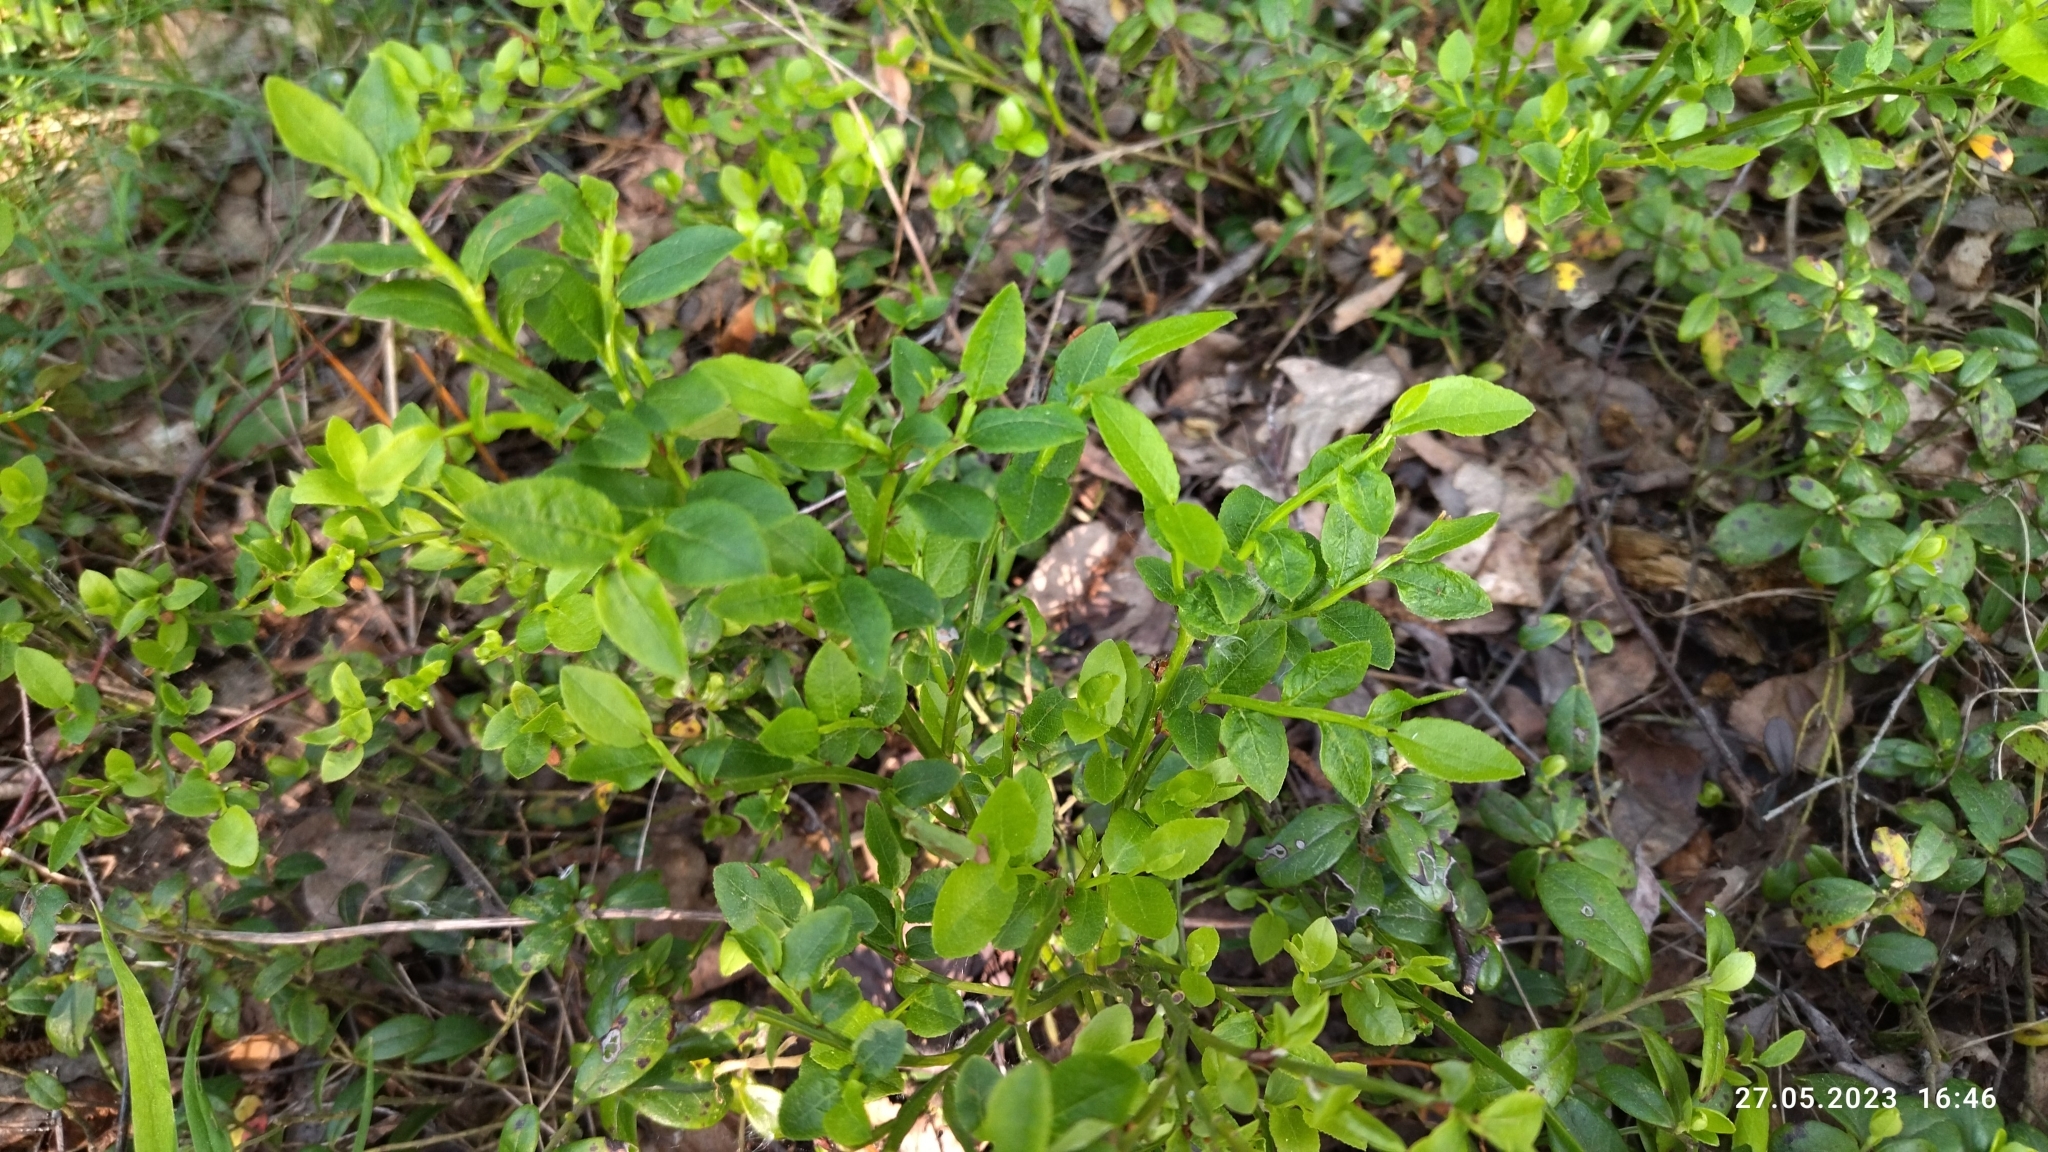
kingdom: Plantae
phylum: Tracheophyta
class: Magnoliopsida
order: Ericales
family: Ericaceae
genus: Vaccinium
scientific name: Vaccinium myrtillus
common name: Bilberry
